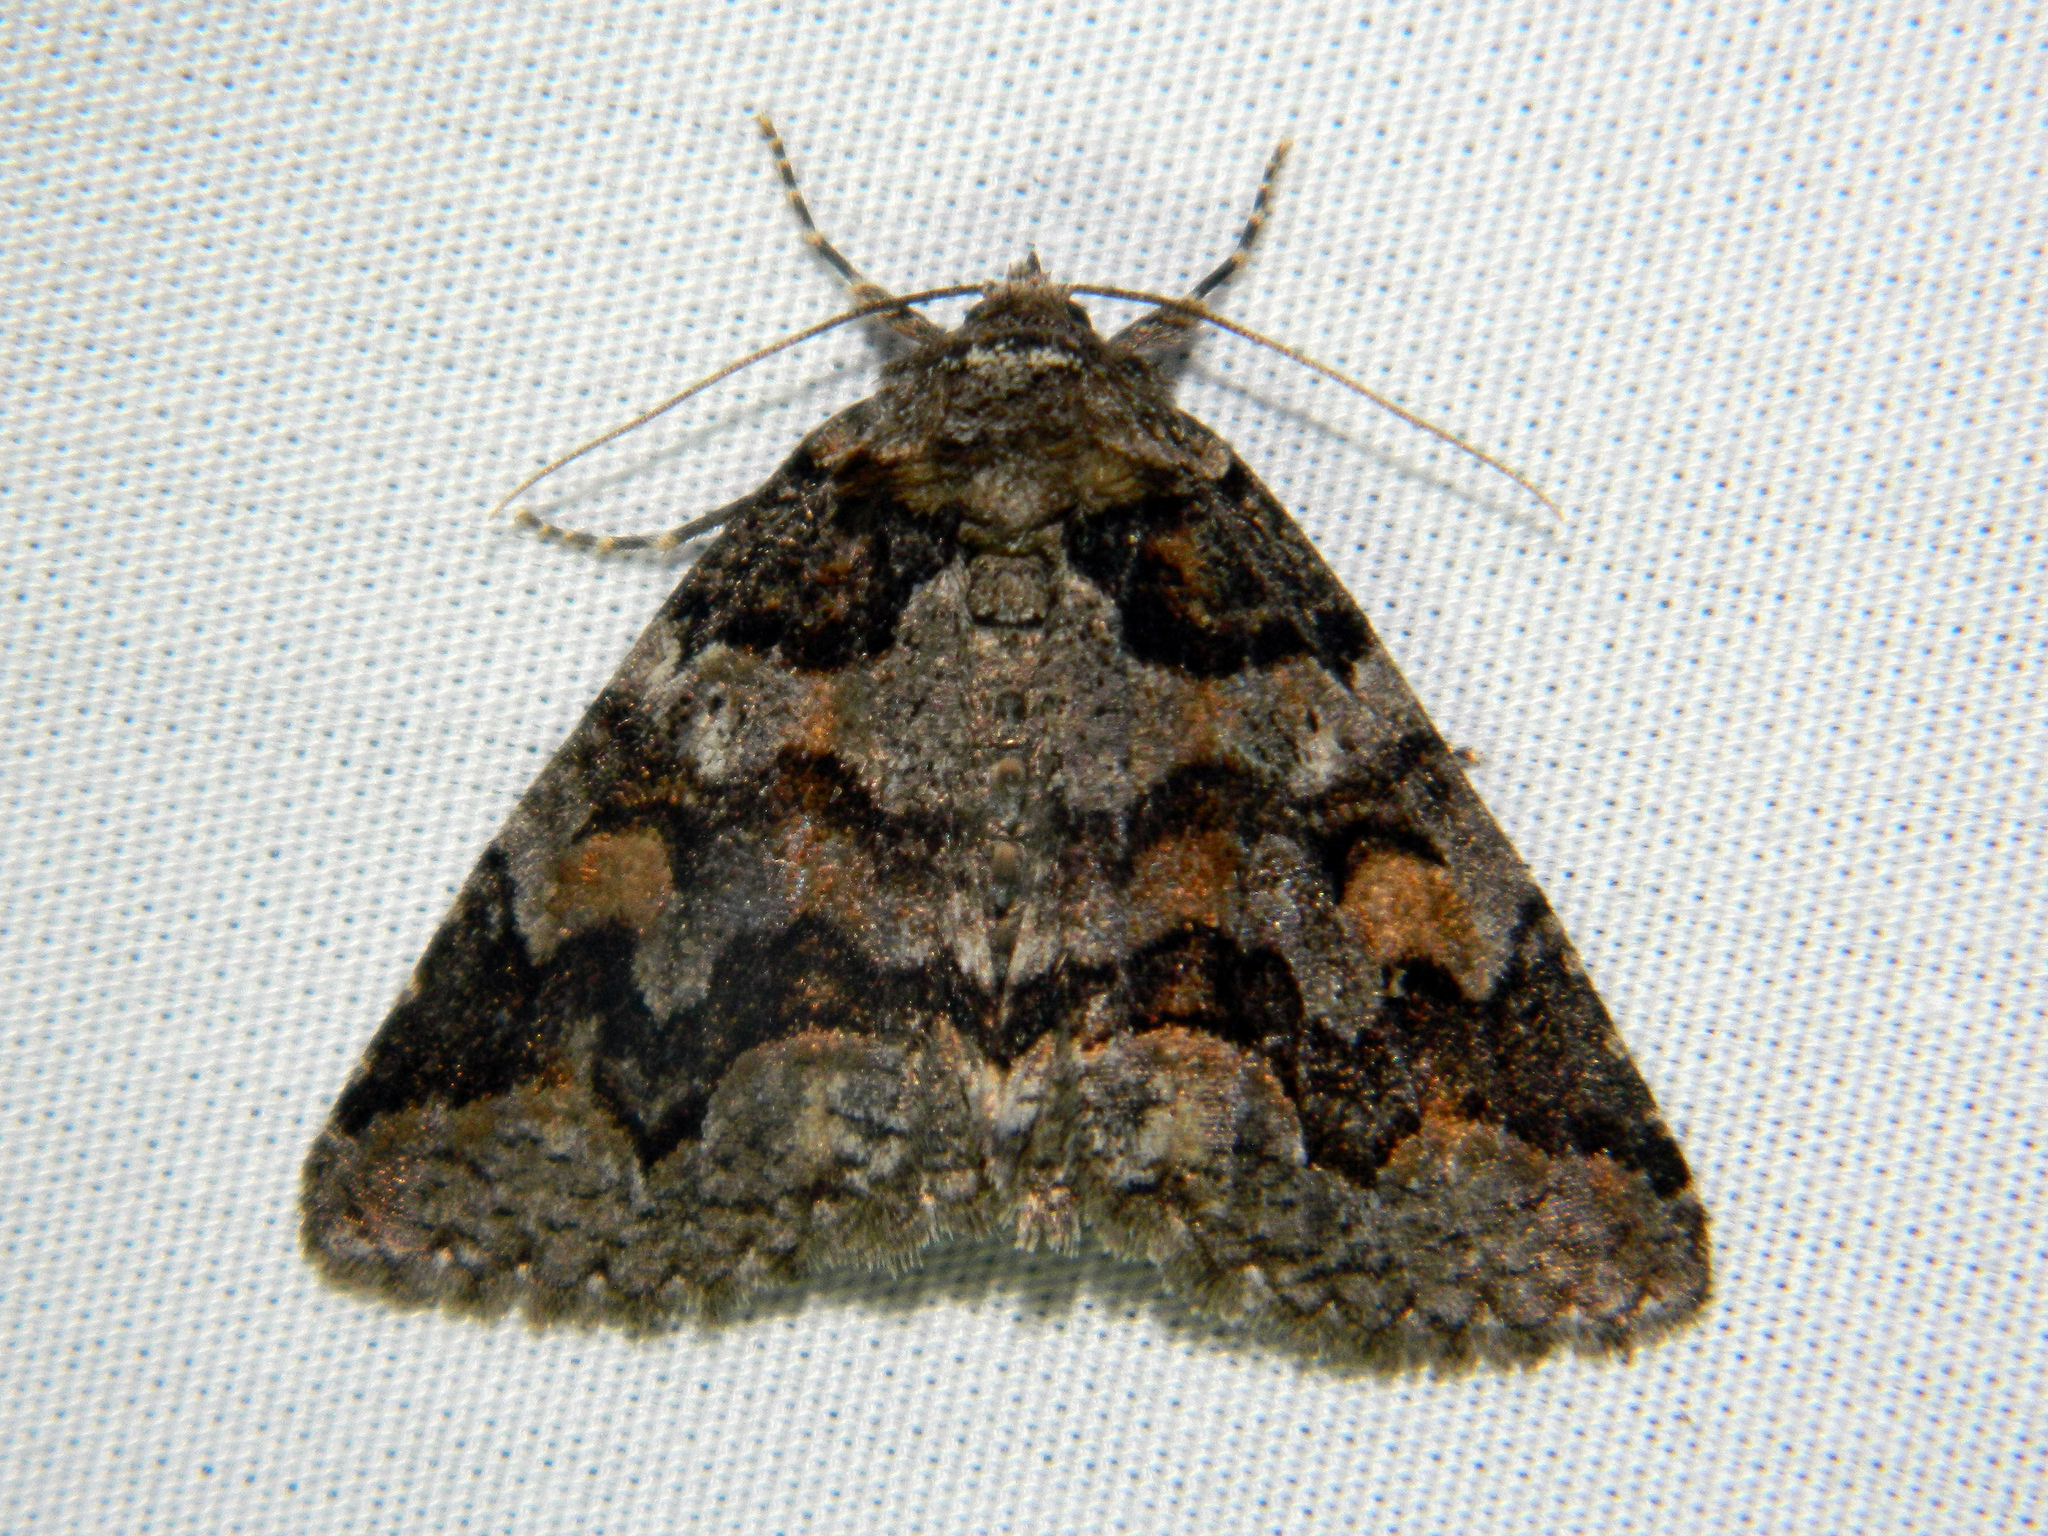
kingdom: Animalia
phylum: Arthropoda
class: Insecta
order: Lepidoptera
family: Erebidae
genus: Zale
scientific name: Zale duplicata
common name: Pine false looper moth
